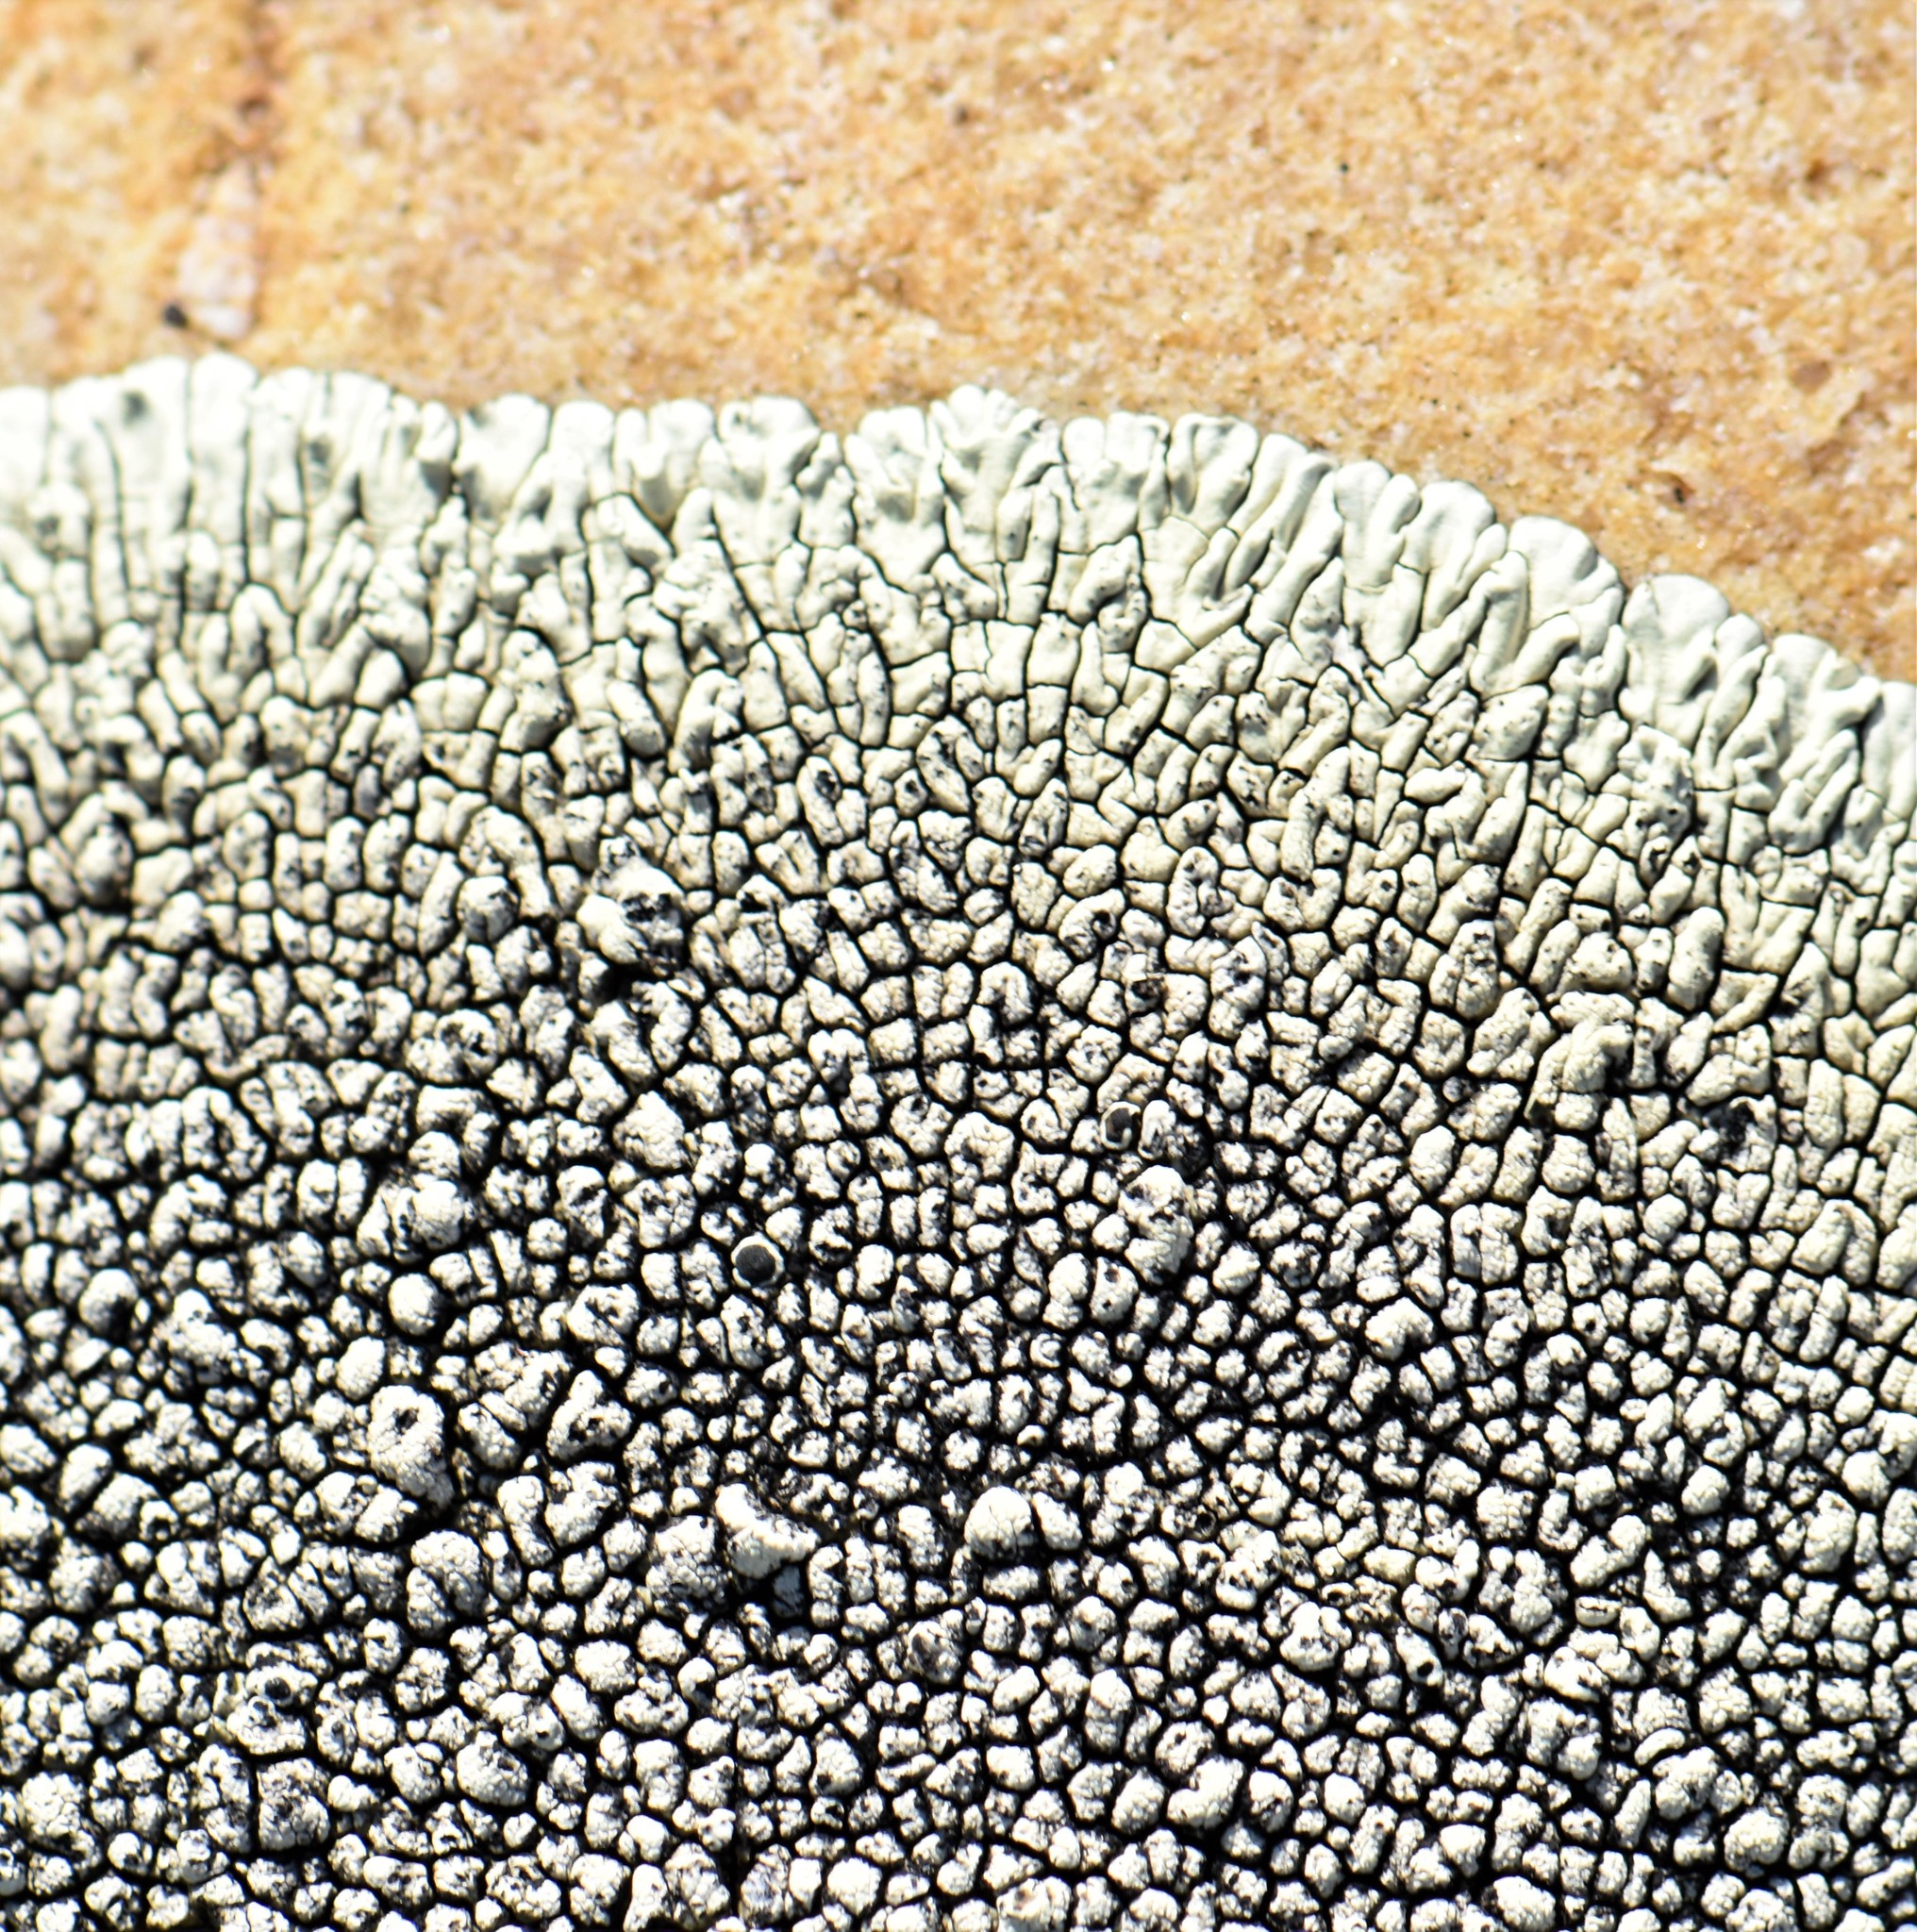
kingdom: Fungi
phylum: Ascomycota
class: Lecanoromycetes
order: Caliciales
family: Caliciaceae
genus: Dimelaena
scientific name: Dimelaena oreina
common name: Golden moonglow lichen
